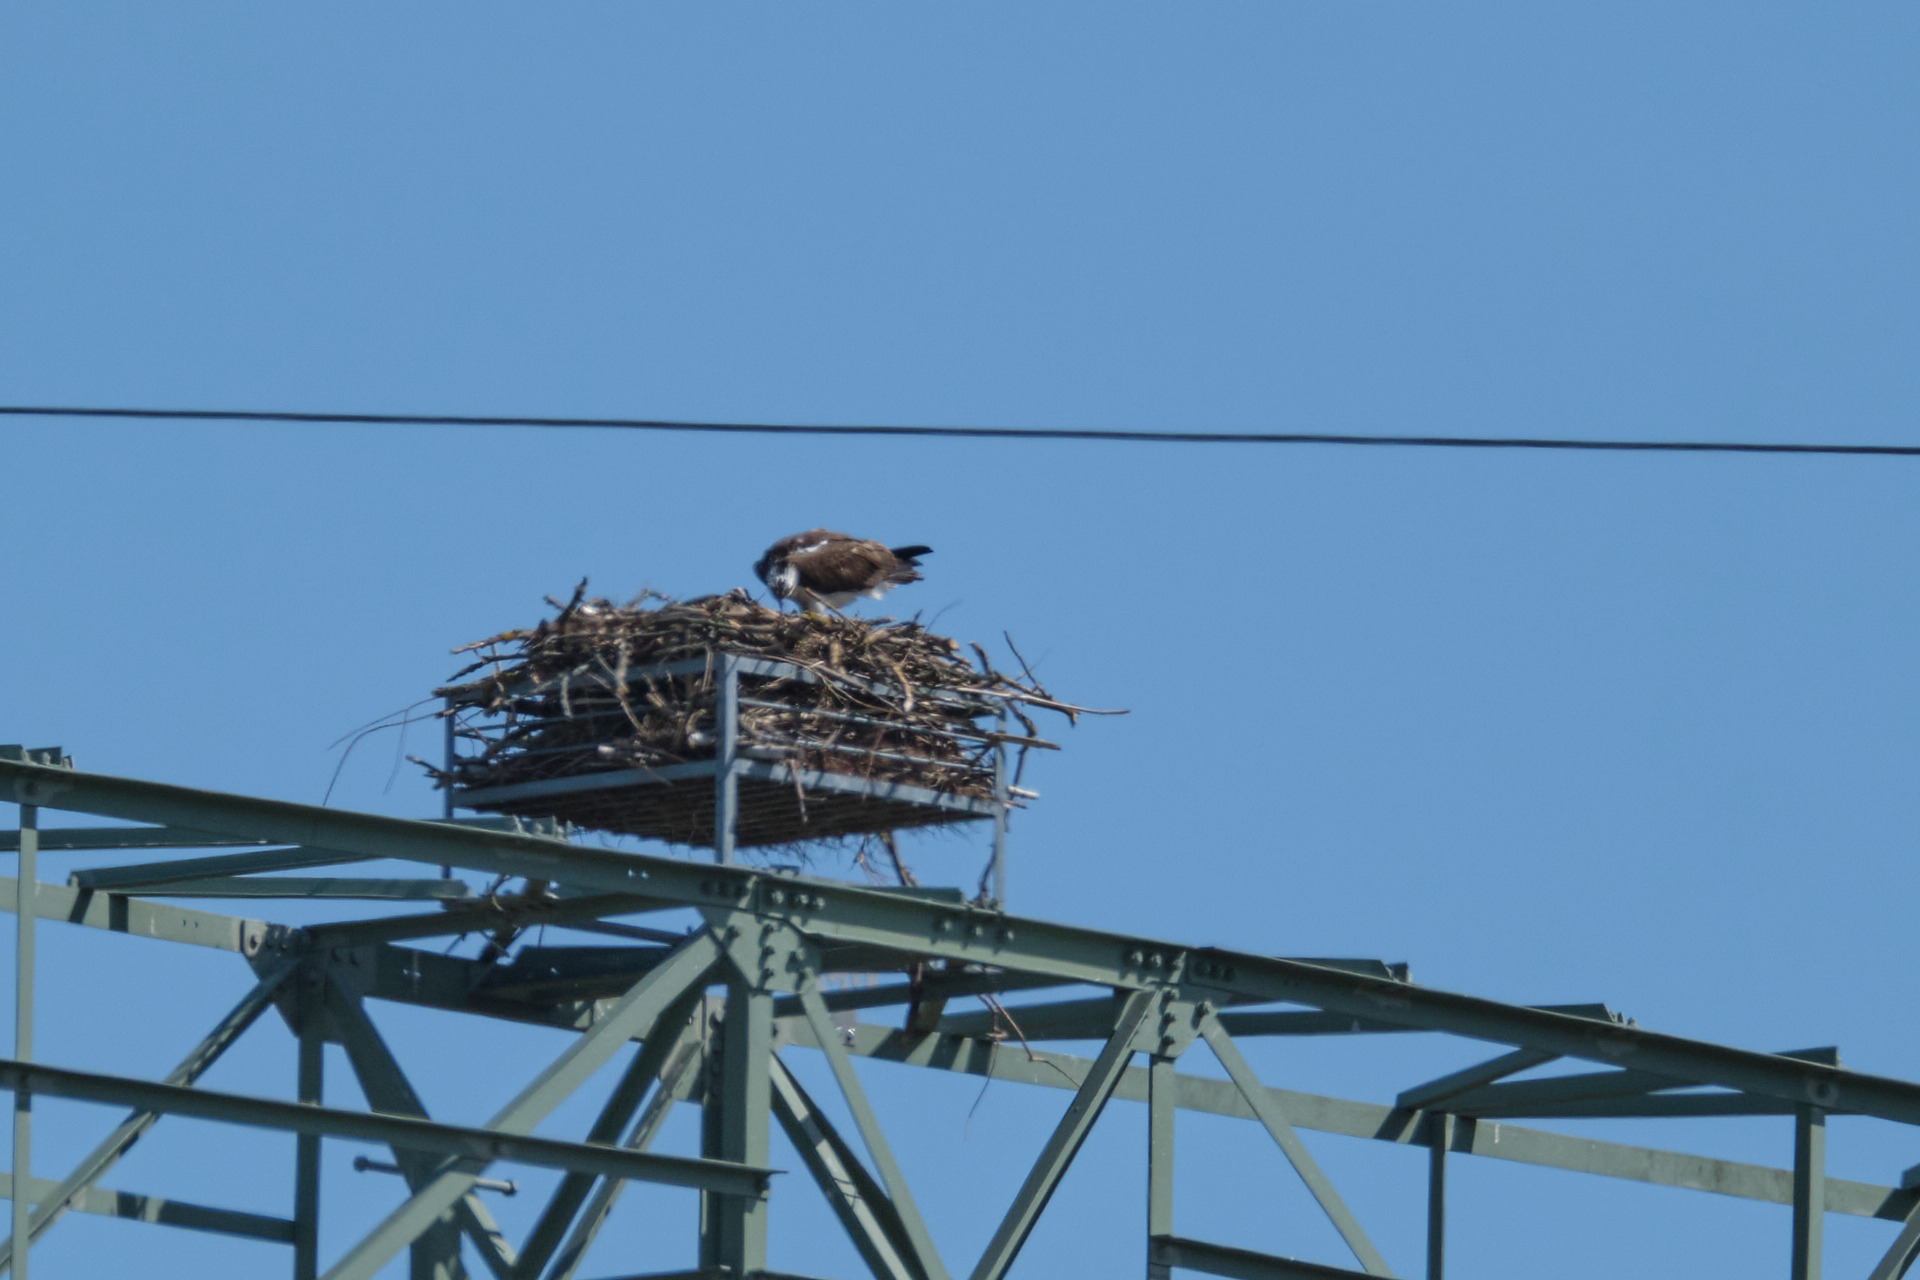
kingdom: Animalia
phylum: Chordata
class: Aves
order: Accipitriformes
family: Pandionidae
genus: Pandion
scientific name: Pandion haliaetus
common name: Osprey
